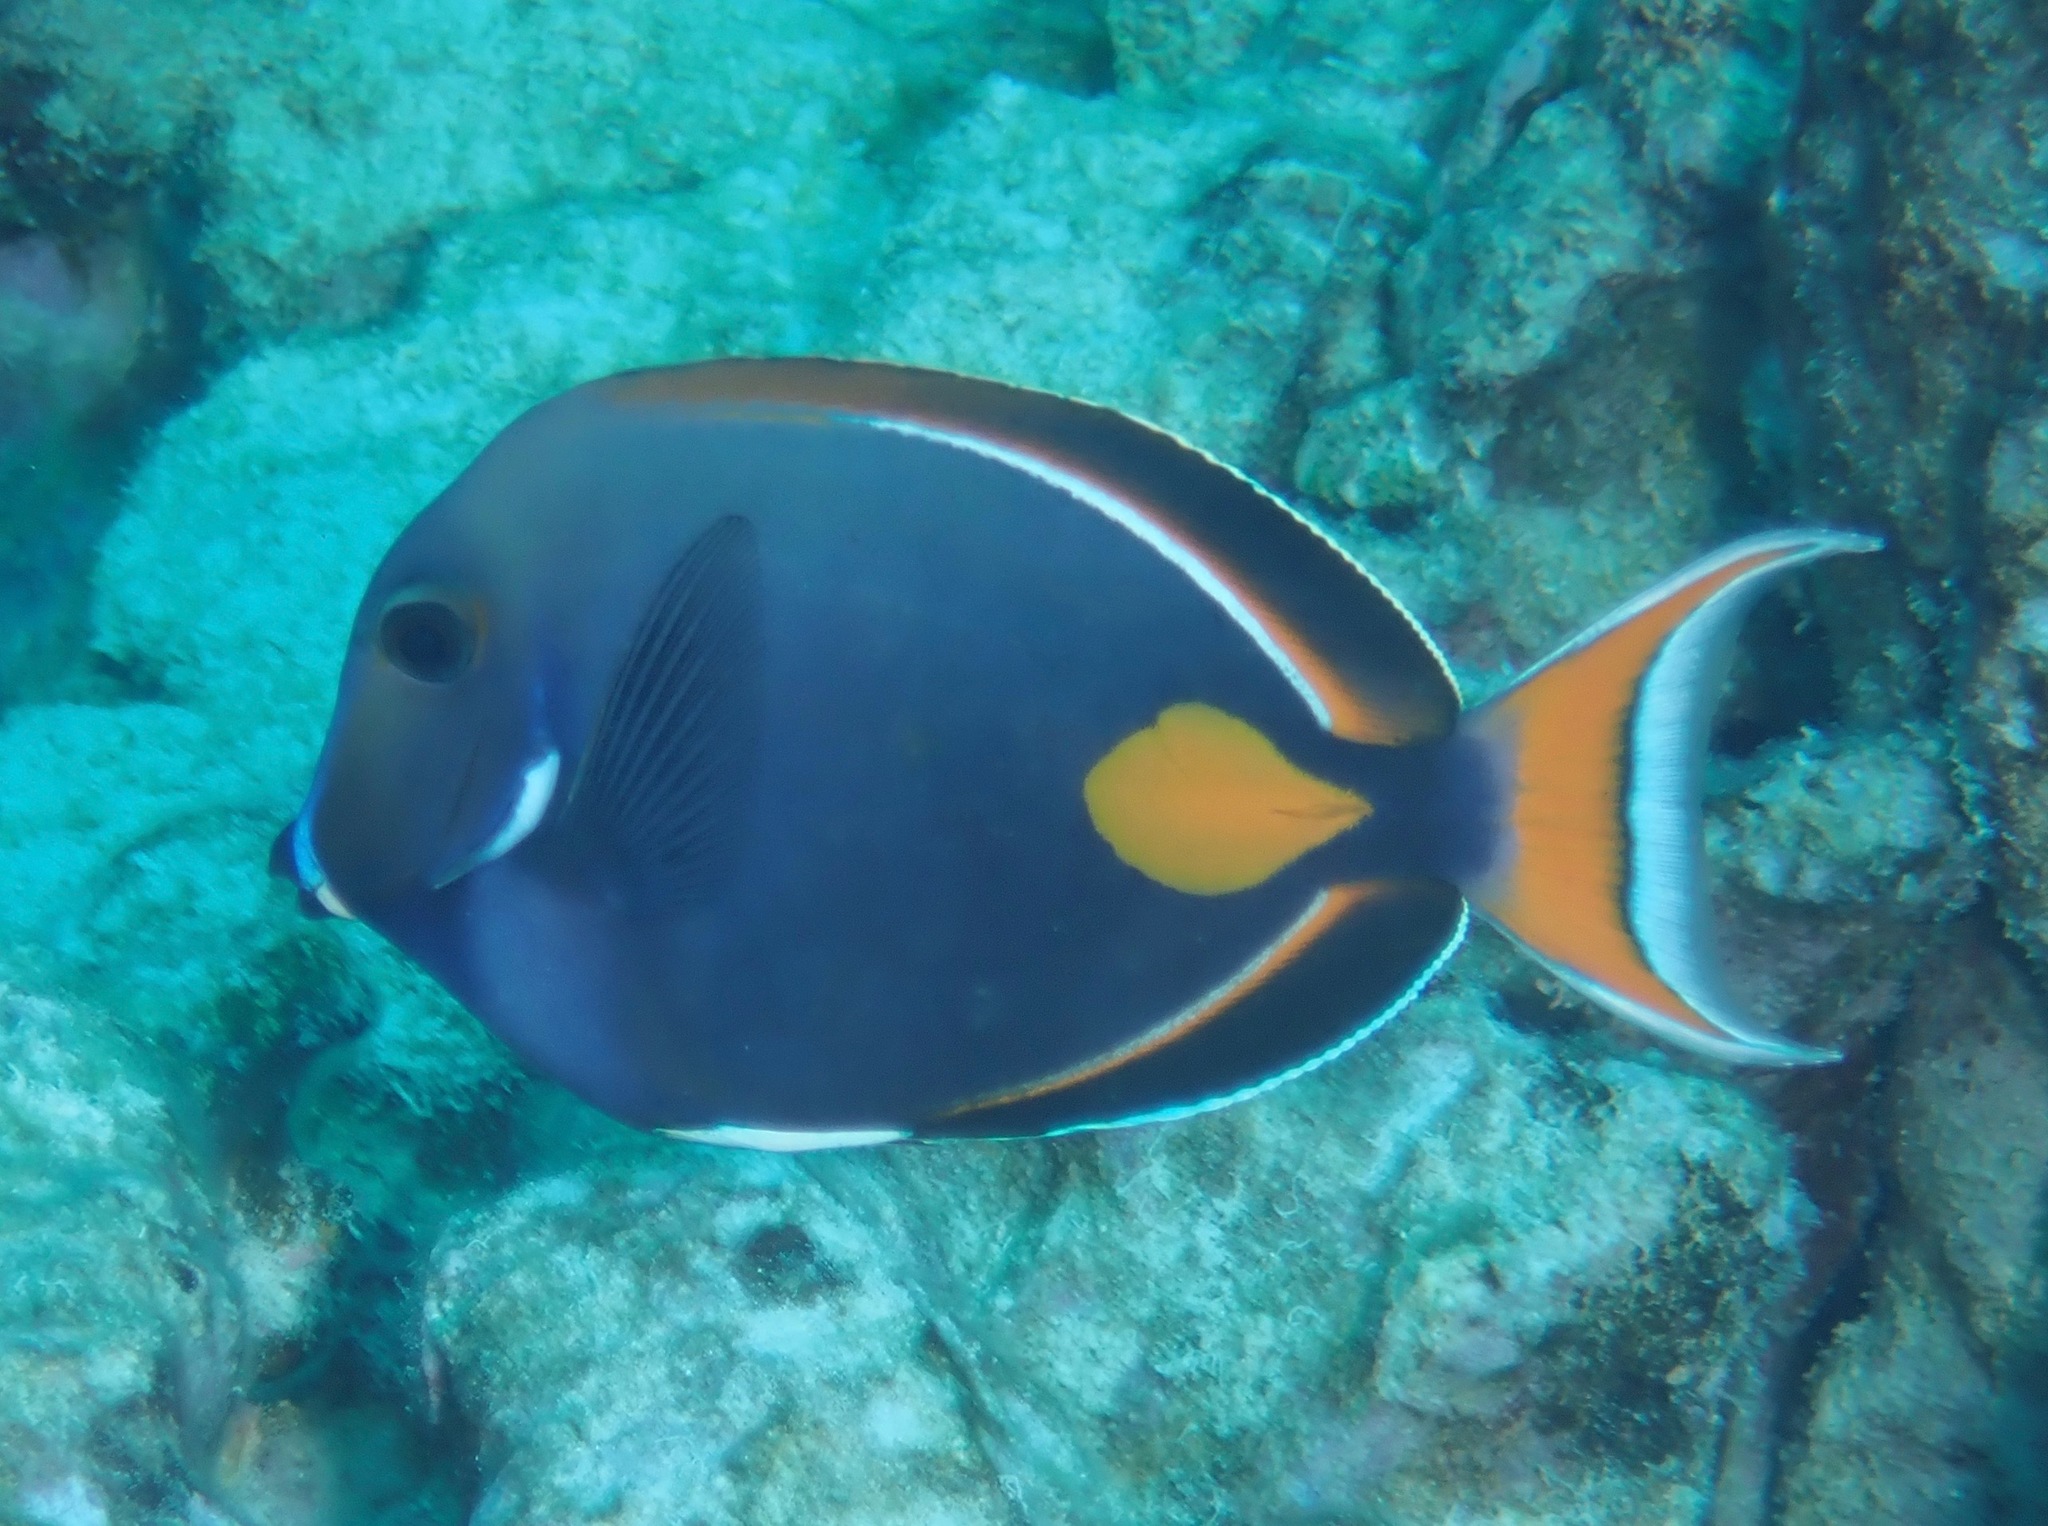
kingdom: Animalia
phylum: Chordata
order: Perciformes
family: Acanthuridae
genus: Acanthurus
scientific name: Acanthurus achilles
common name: Achilles tang
